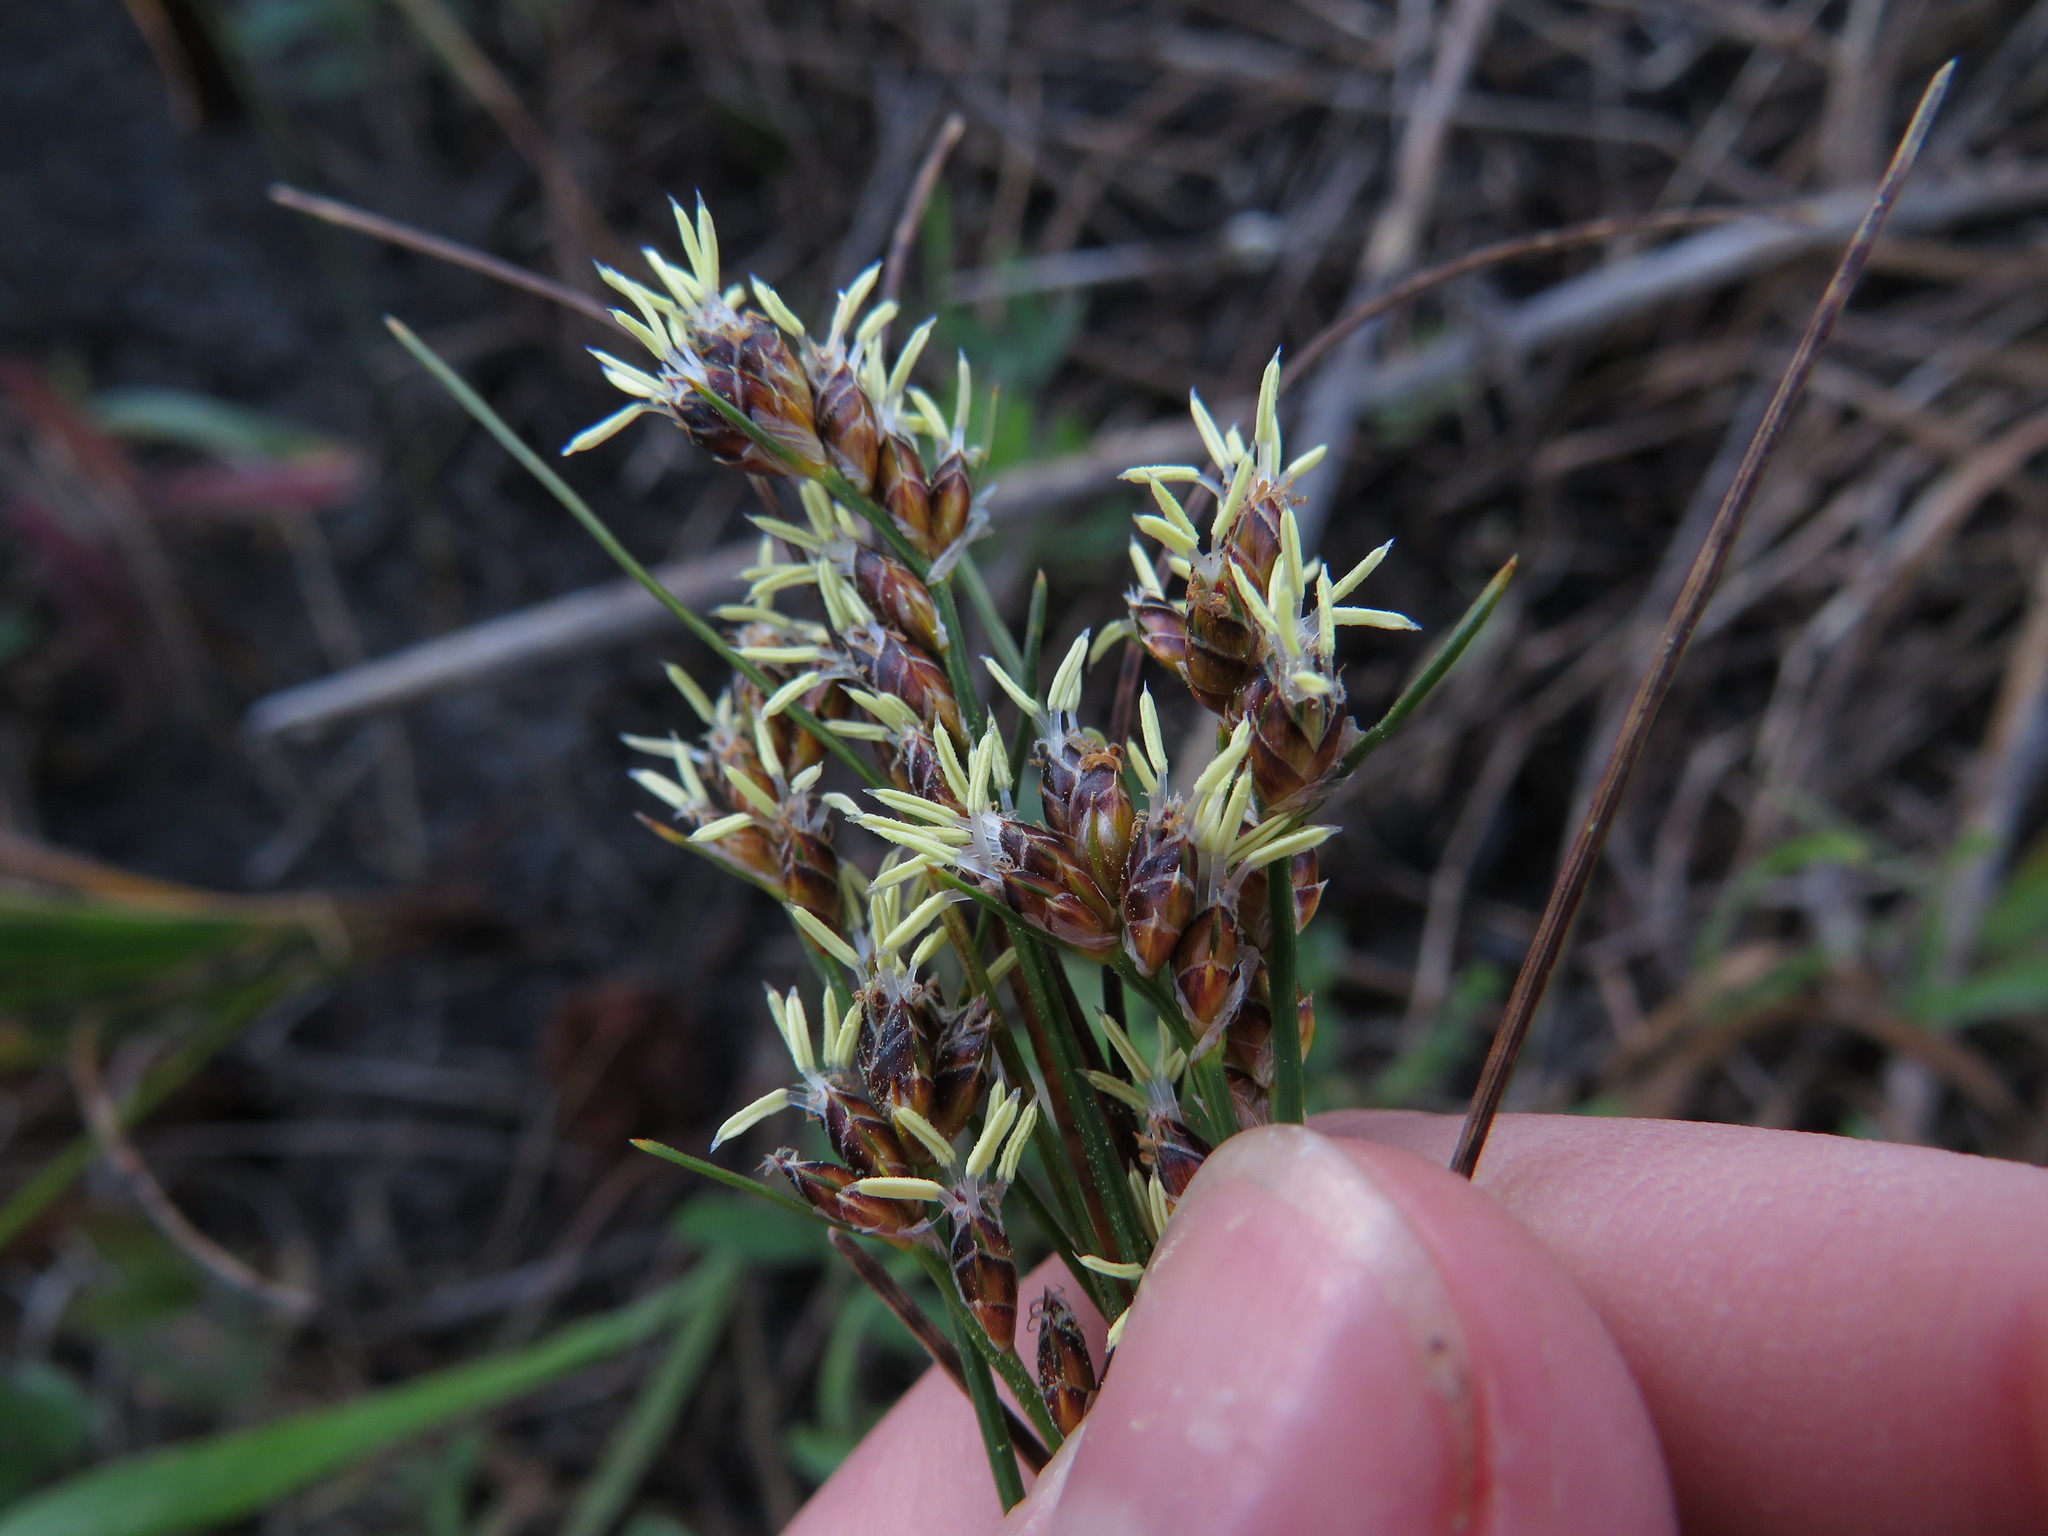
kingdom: Plantae
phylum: Tracheophyta
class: Liliopsida
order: Poales
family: Cyperaceae
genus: Ficinia
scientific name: Ficinia secunda
